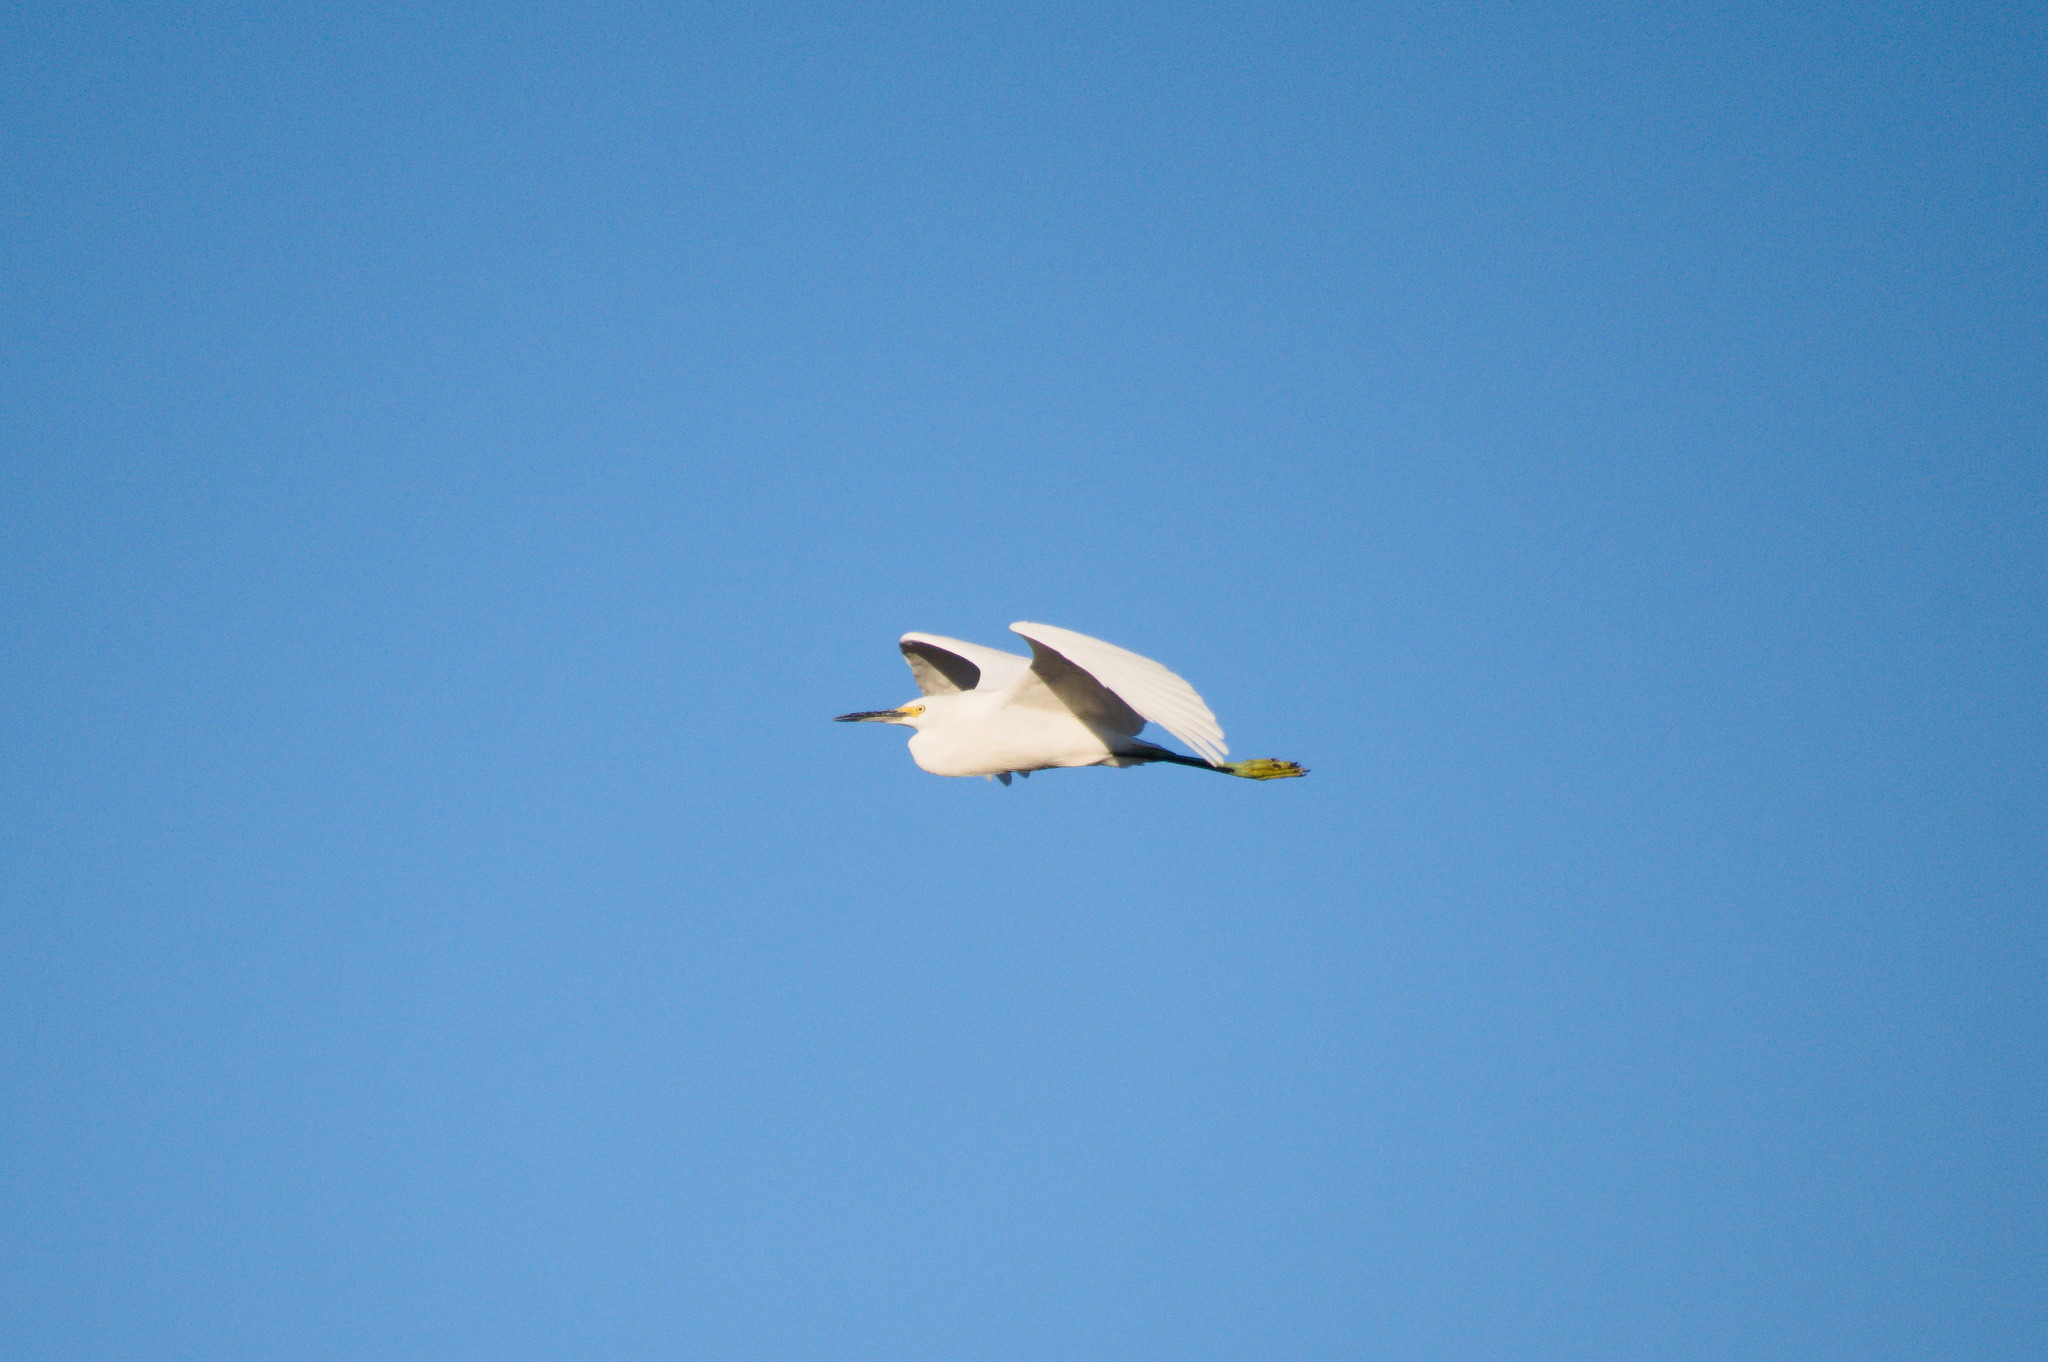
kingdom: Animalia
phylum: Chordata
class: Aves
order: Pelecaniformes
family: Ardeidae
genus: Egretta
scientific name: Egretta thula
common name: Snowy egret
